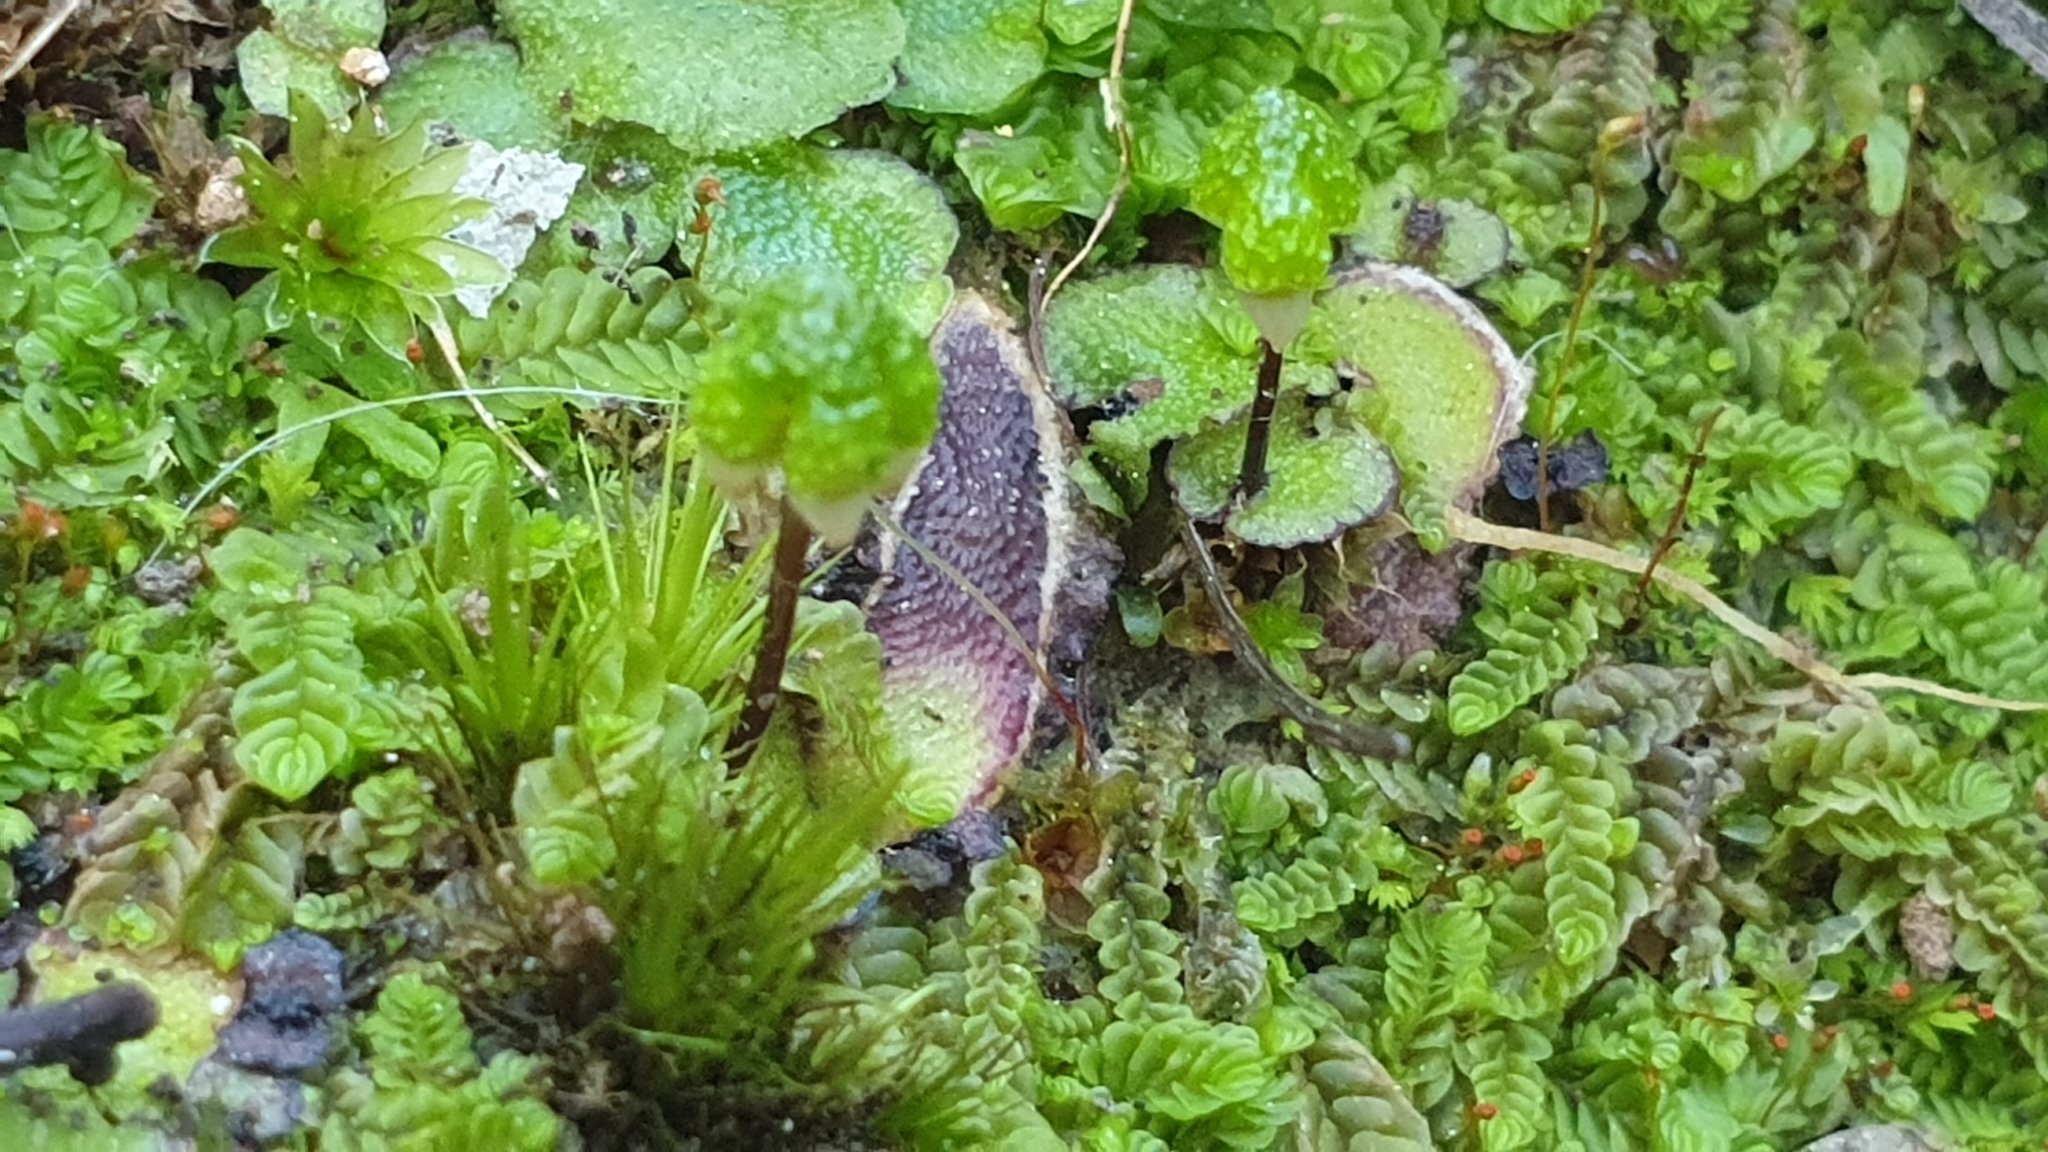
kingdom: Plantae
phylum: Marchantiophyta
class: Marchantiopsida
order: Marchantiales
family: Aytoniaceae
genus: Asterella
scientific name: Asterella drummondii
